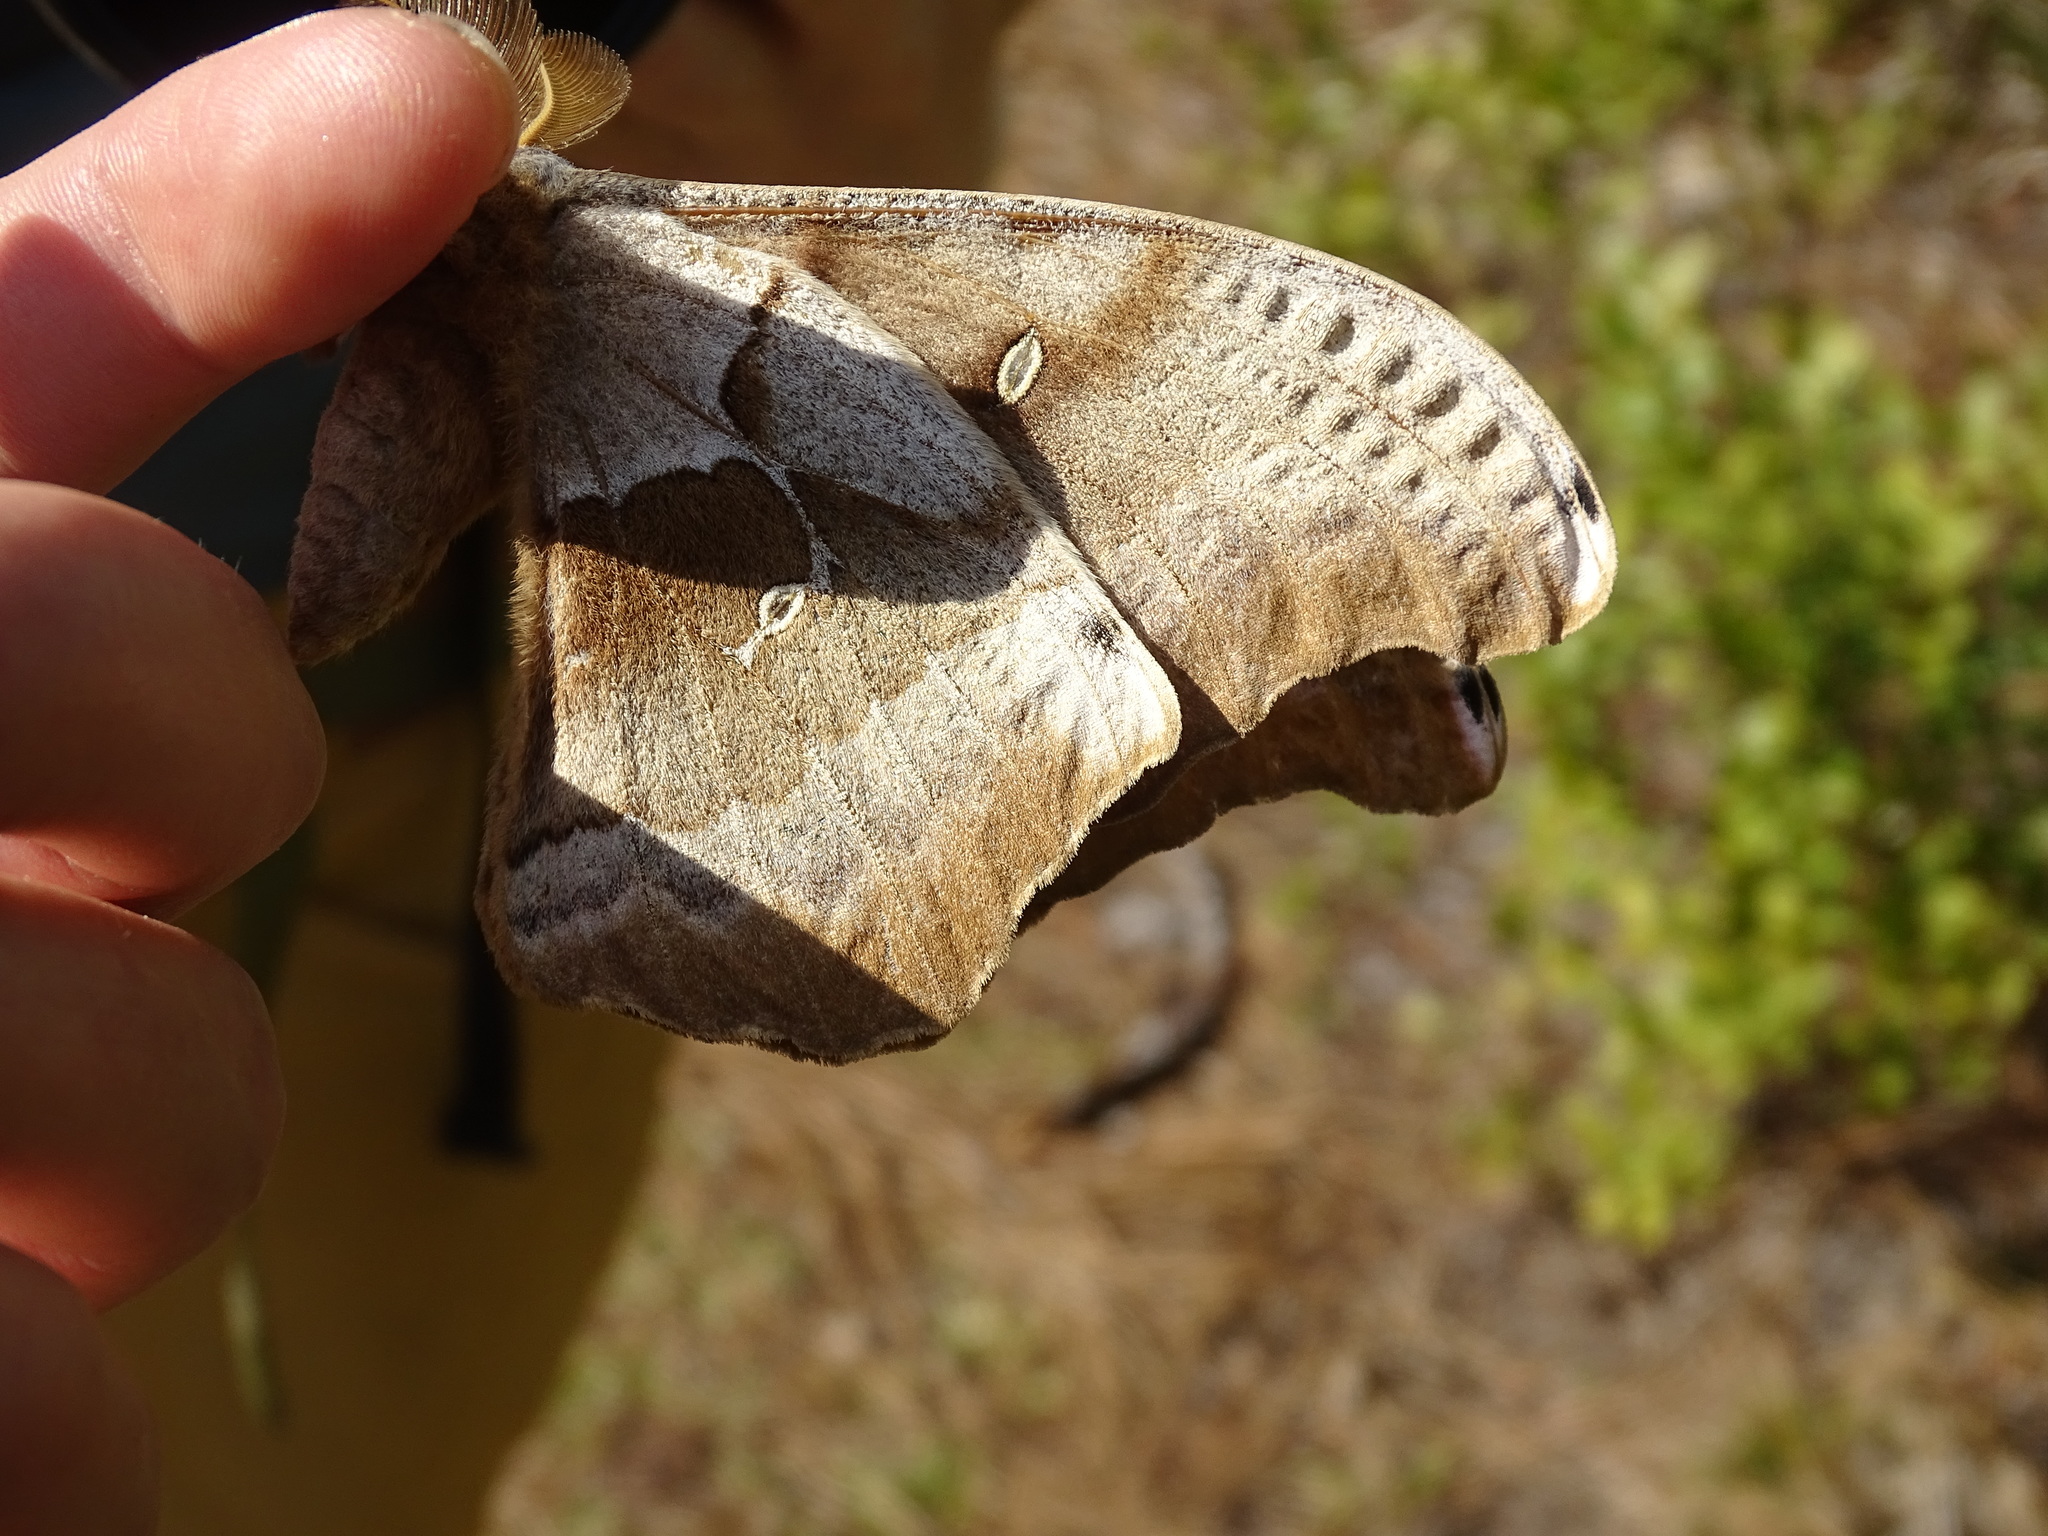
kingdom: Animalia
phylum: Arthropoda
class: Insecta
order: Lepidoptera
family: Saturniidae
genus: Antheraea
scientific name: Antheraea polyphemus
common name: Polyphemus moth
